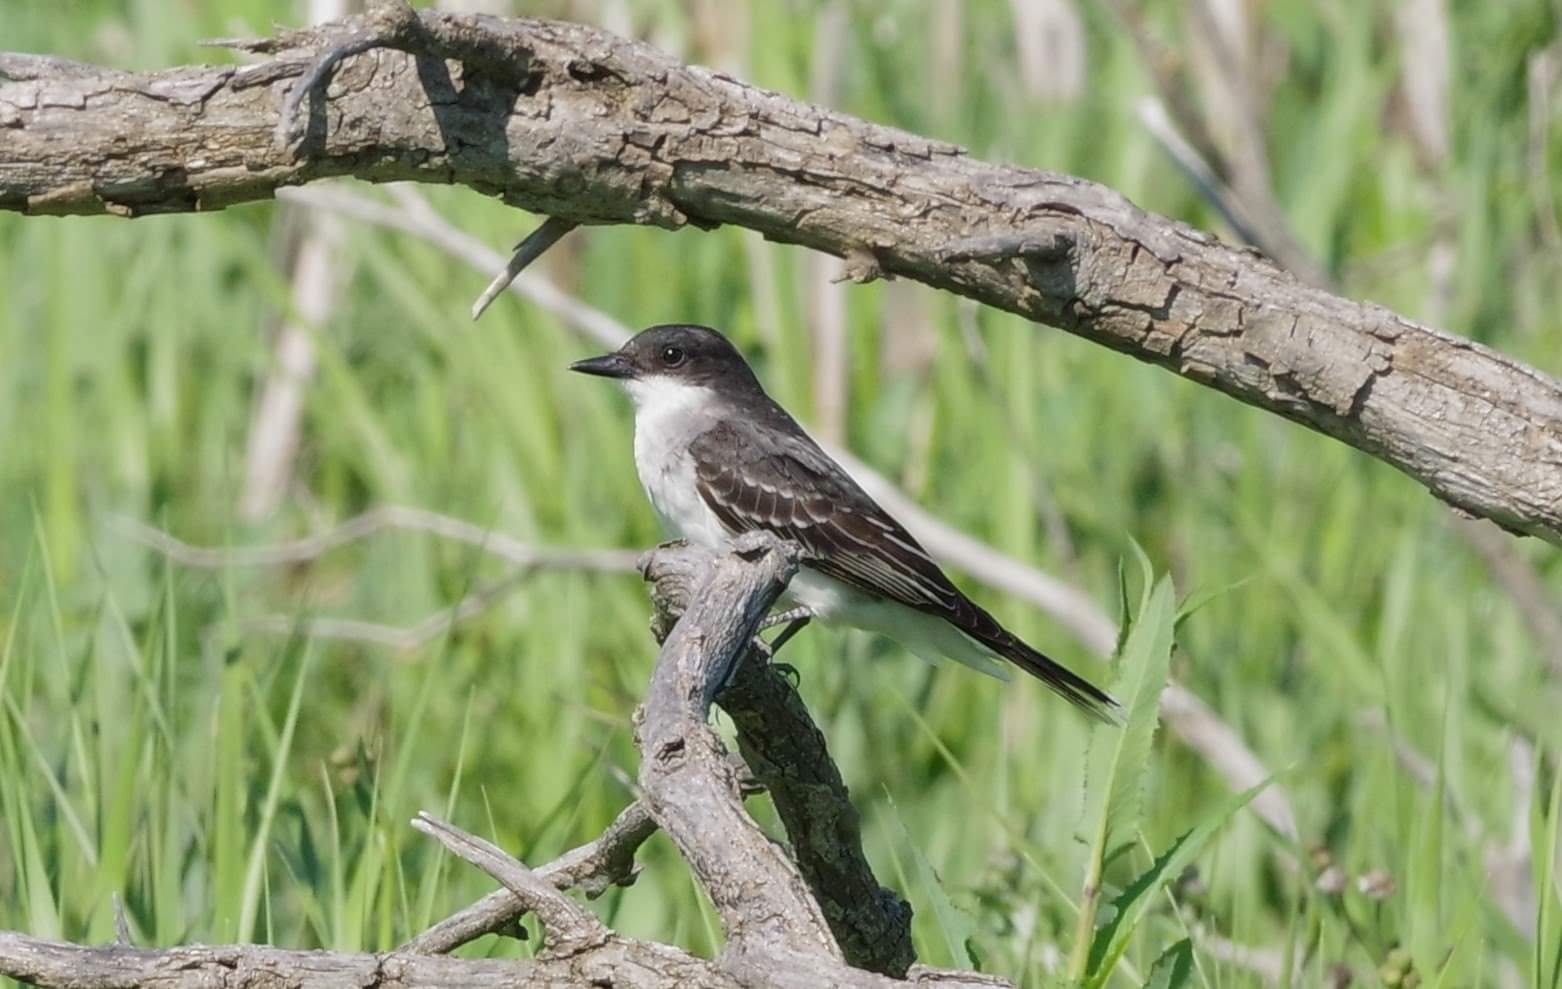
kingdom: Animalia
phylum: Chordata
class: Aves
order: Passeriformes
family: Tyrannidae
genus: Tyrannus
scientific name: Tyrannus tyrannus
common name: Eastern kingbird
